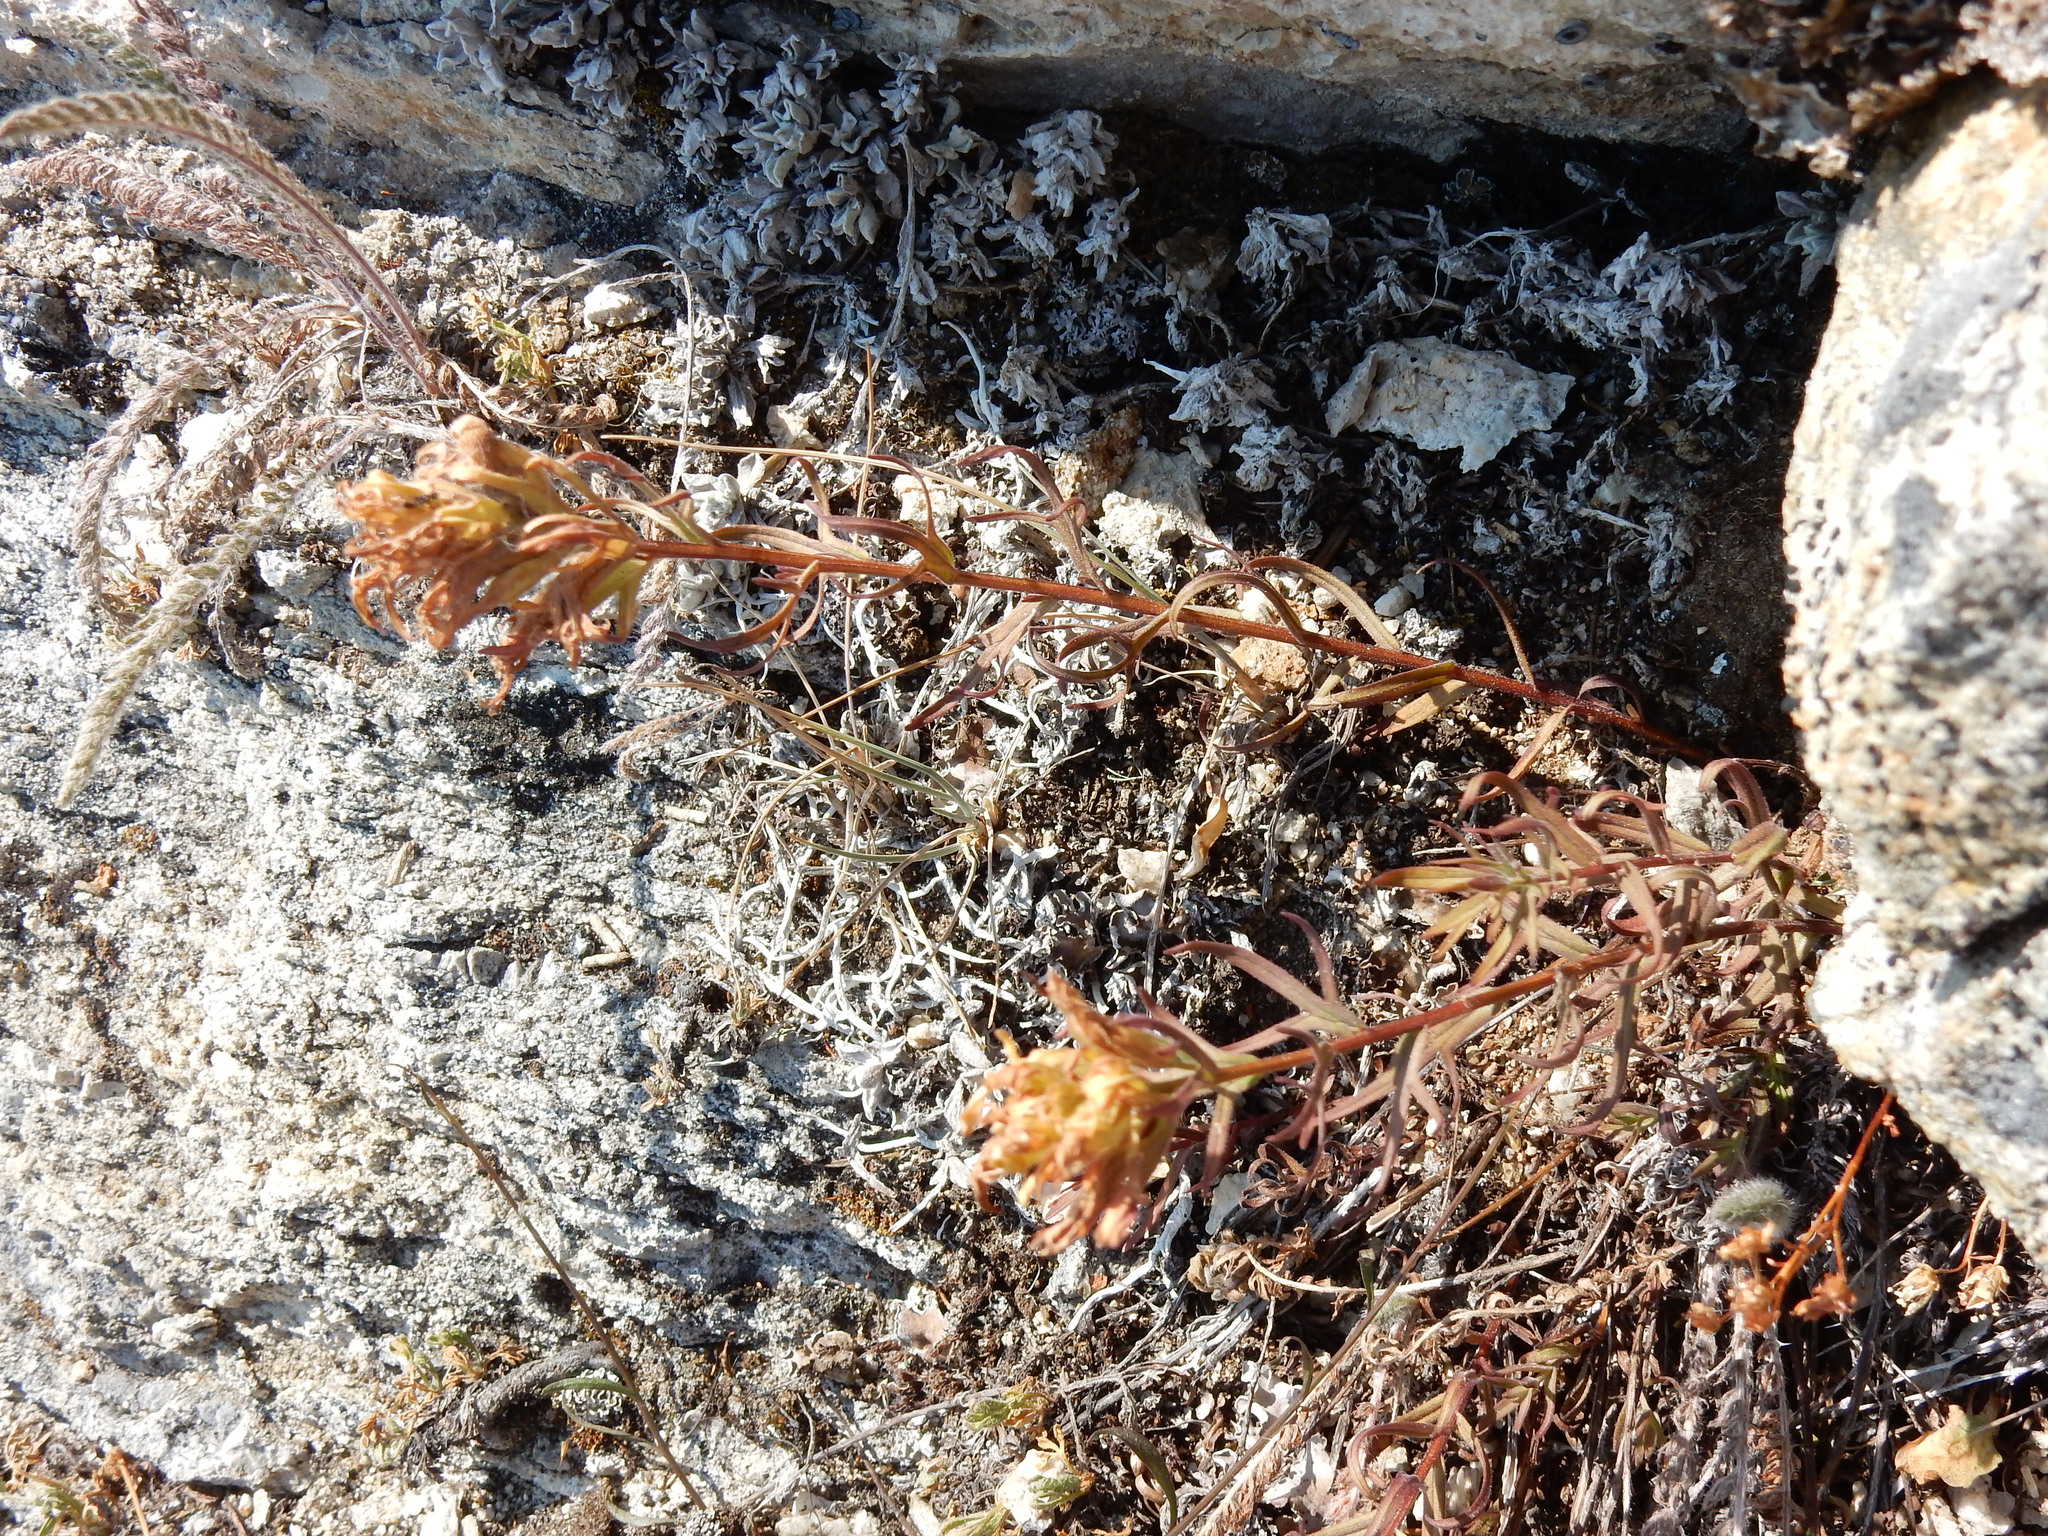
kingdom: Plantae
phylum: Tracheophyta
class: Magnoliopsida
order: Lamiales
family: Orobanchaceae
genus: Castilleja
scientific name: Castilleja rupicola
